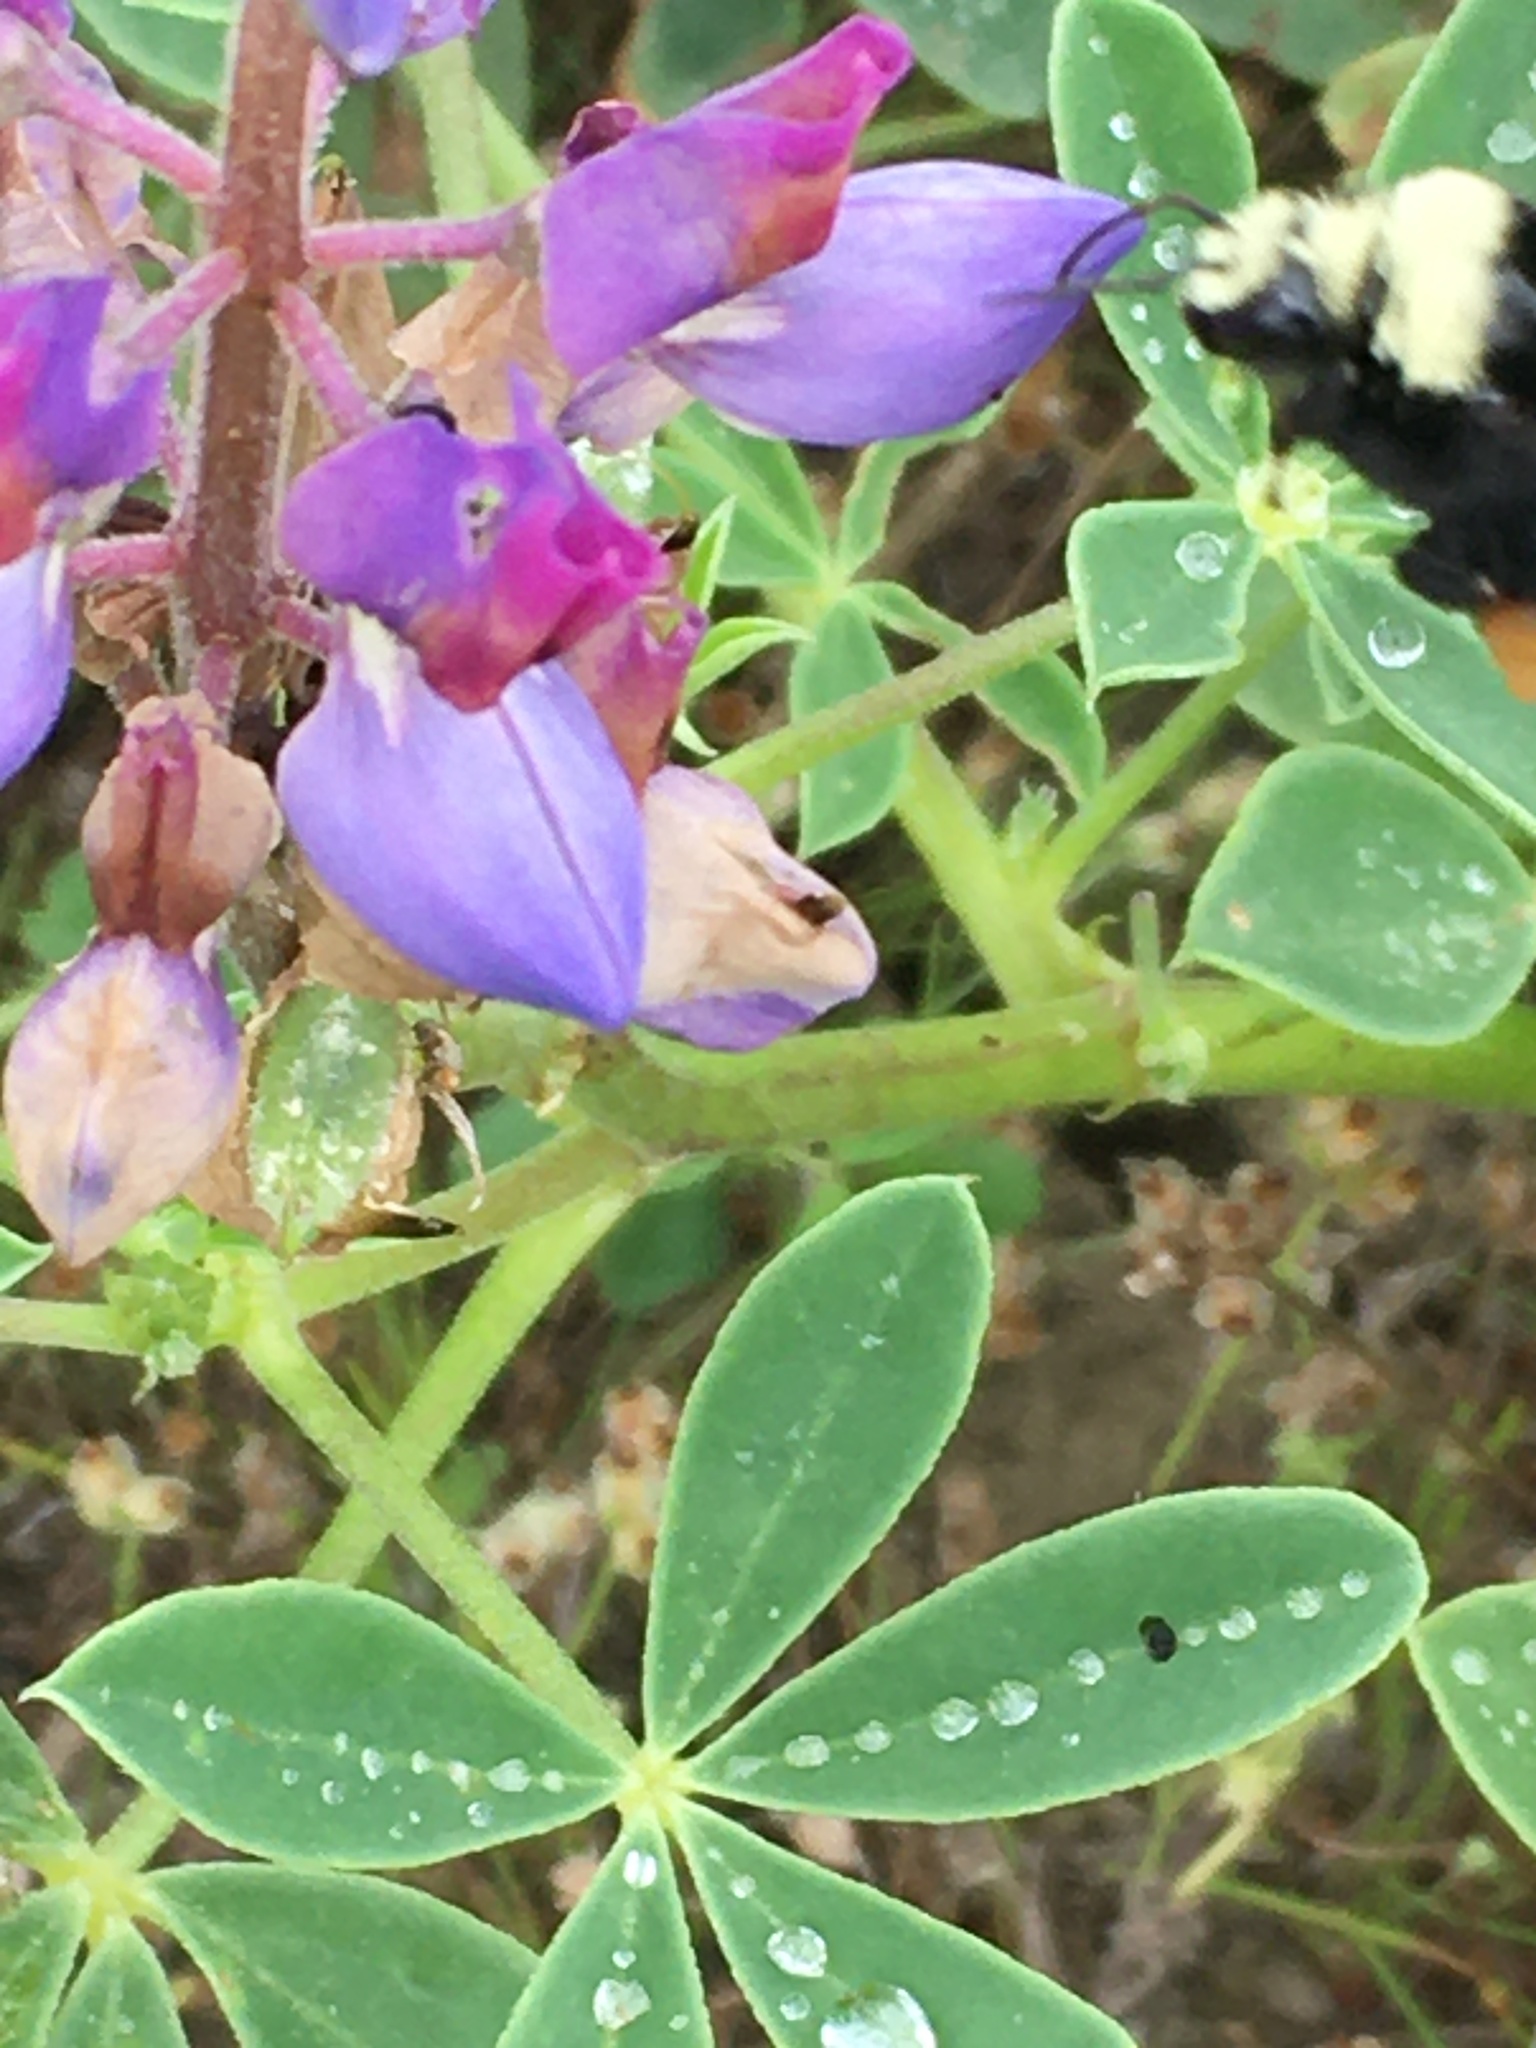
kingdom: Animalia
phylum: Arthropoda
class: Insecta
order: Hymenoptera
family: Apidae
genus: Bombus
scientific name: Bombus vosnesenskii
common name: Vosnesensky bumble bee
